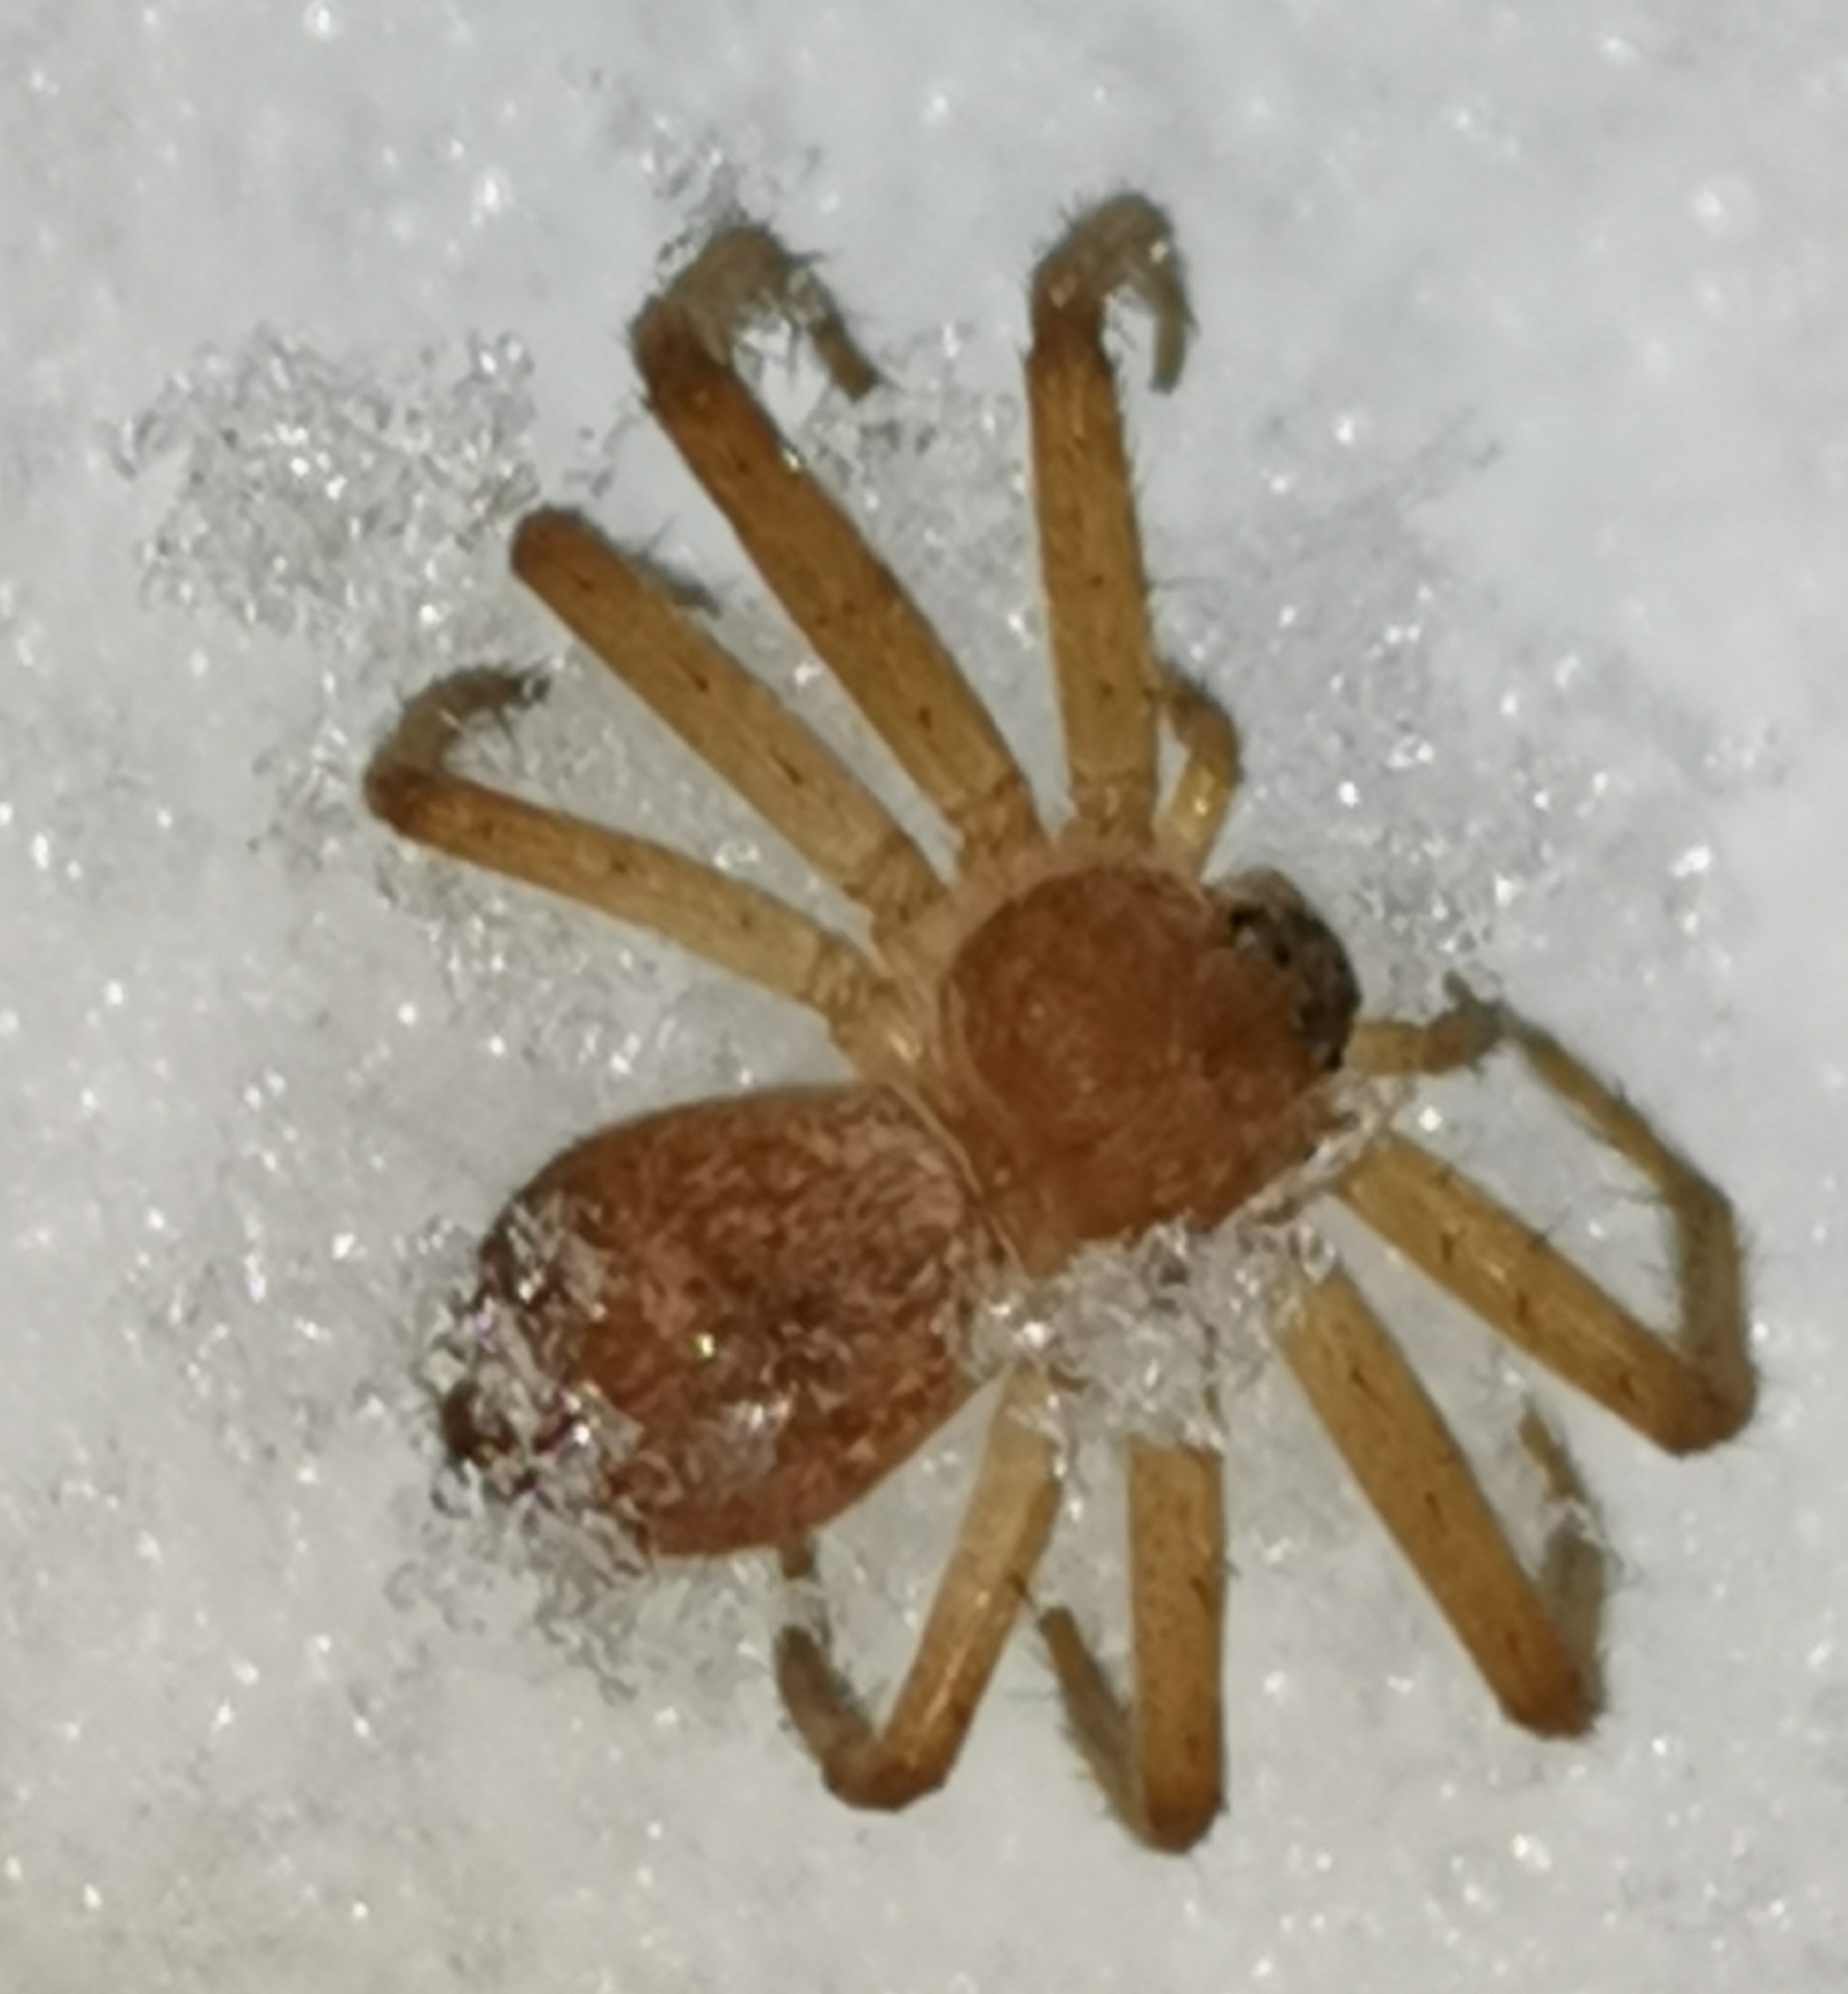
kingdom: Animalia
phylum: Arthropoda
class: Arachnida
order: Araneae
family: Philodromidae
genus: Philodromus
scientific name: Philodromus fuscomarginatus
